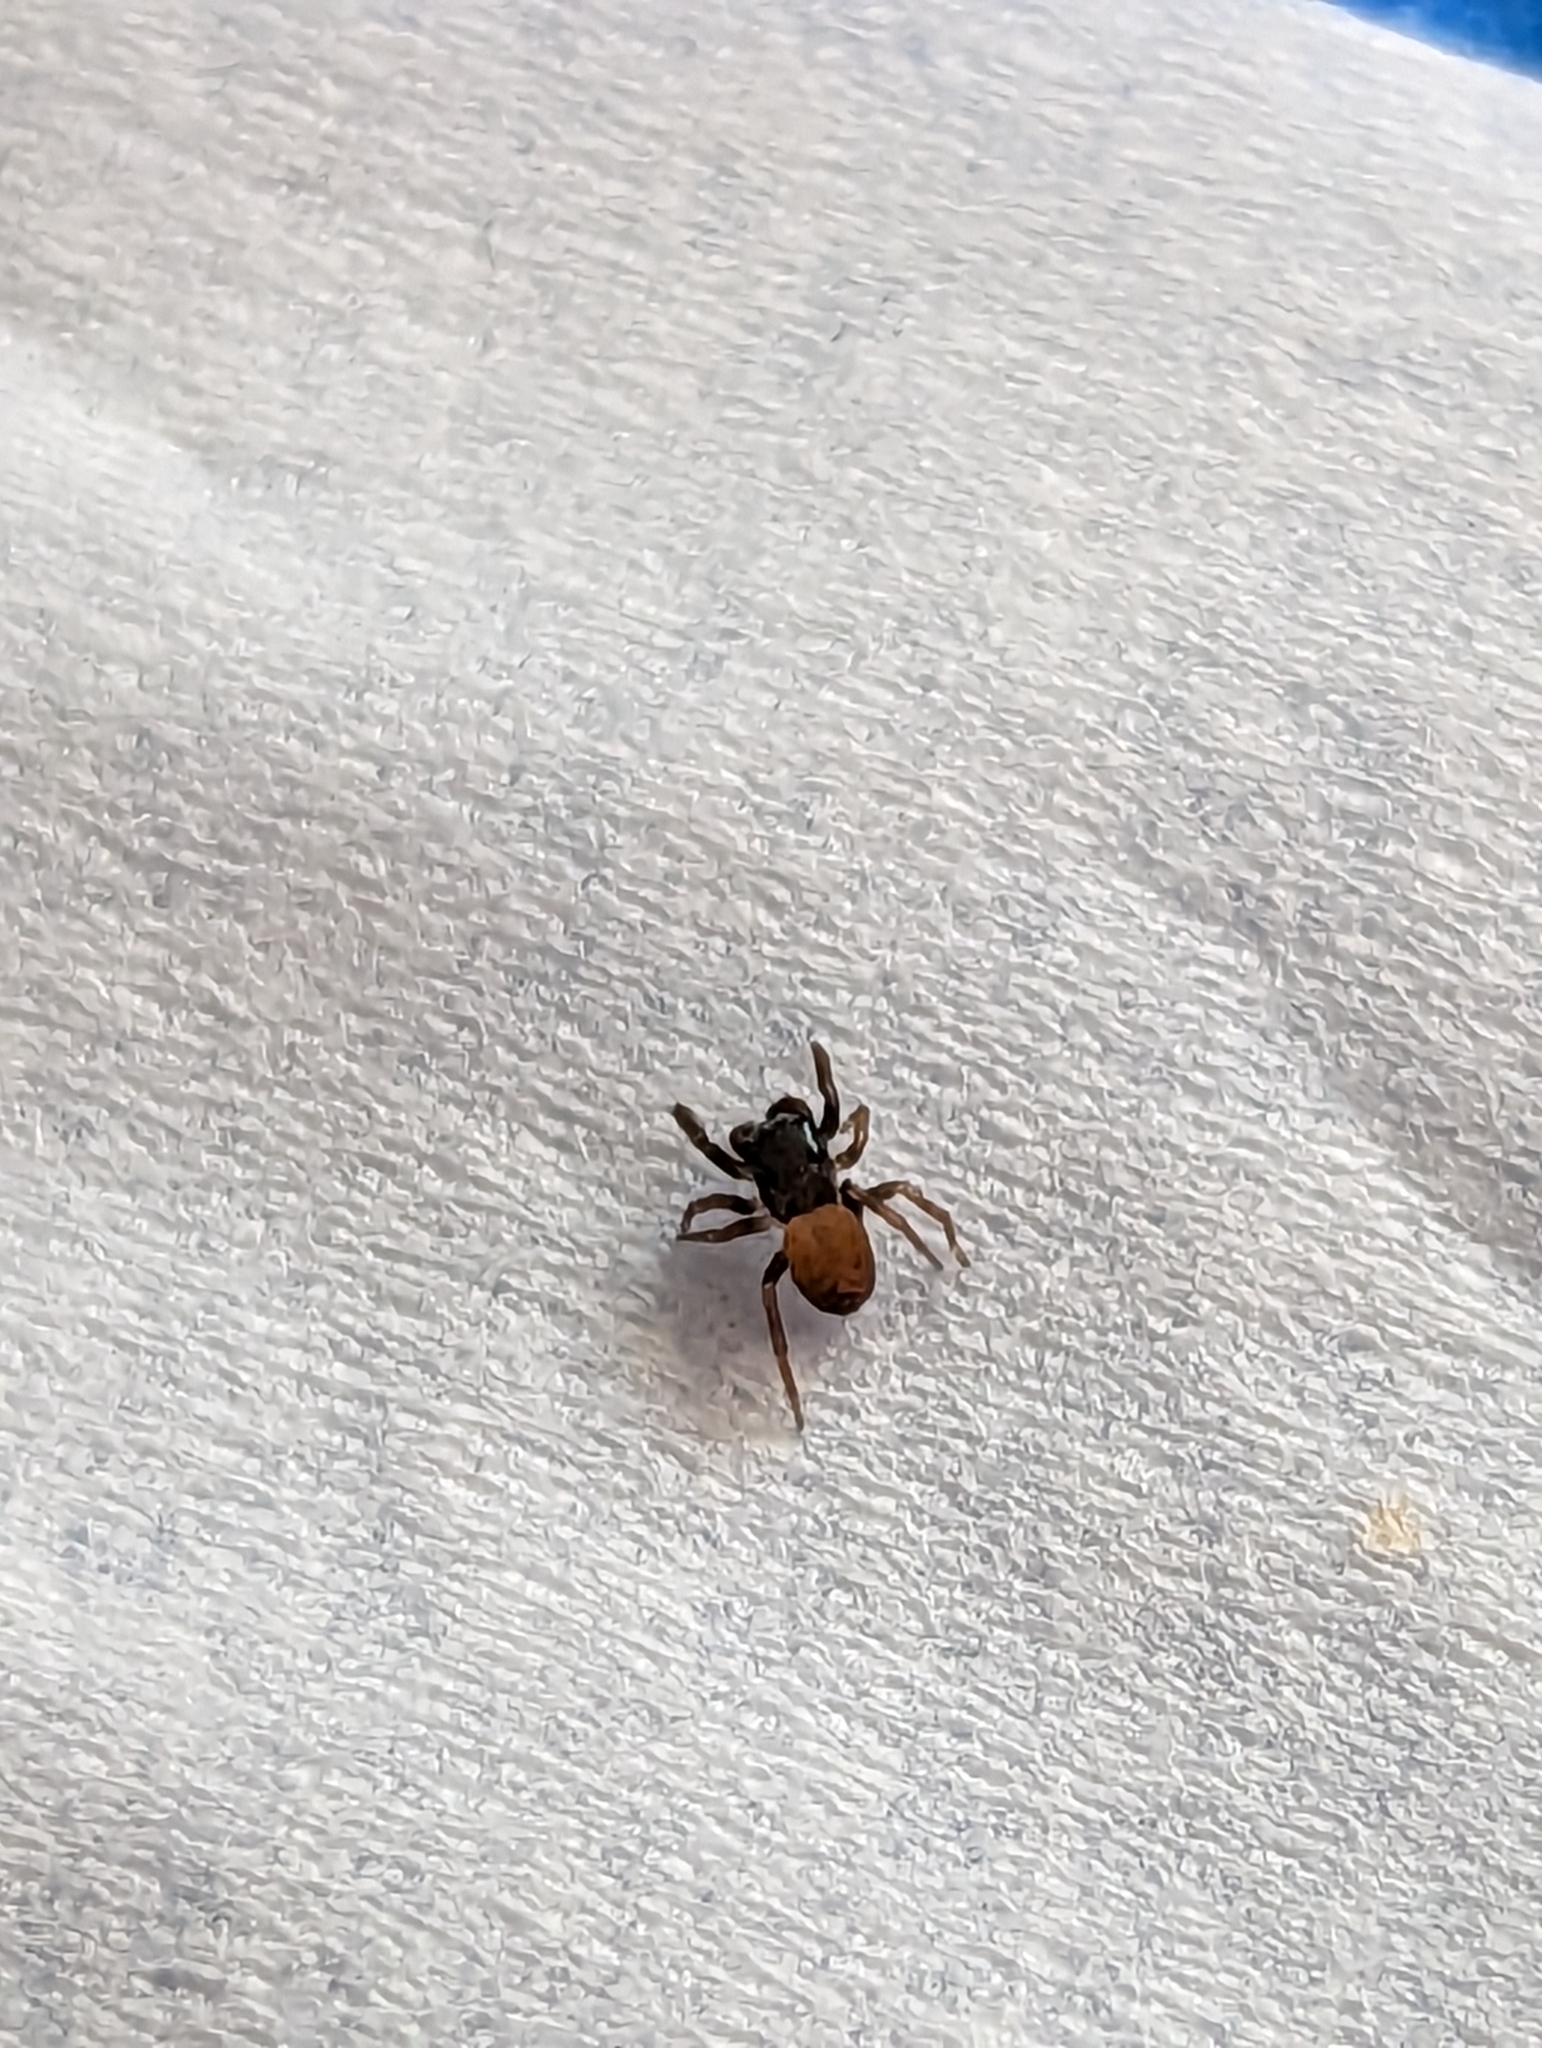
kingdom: Animalia
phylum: Arthropoda
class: Arachnida
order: Araneae
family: Salticidae
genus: Neon
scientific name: Neon nelli
